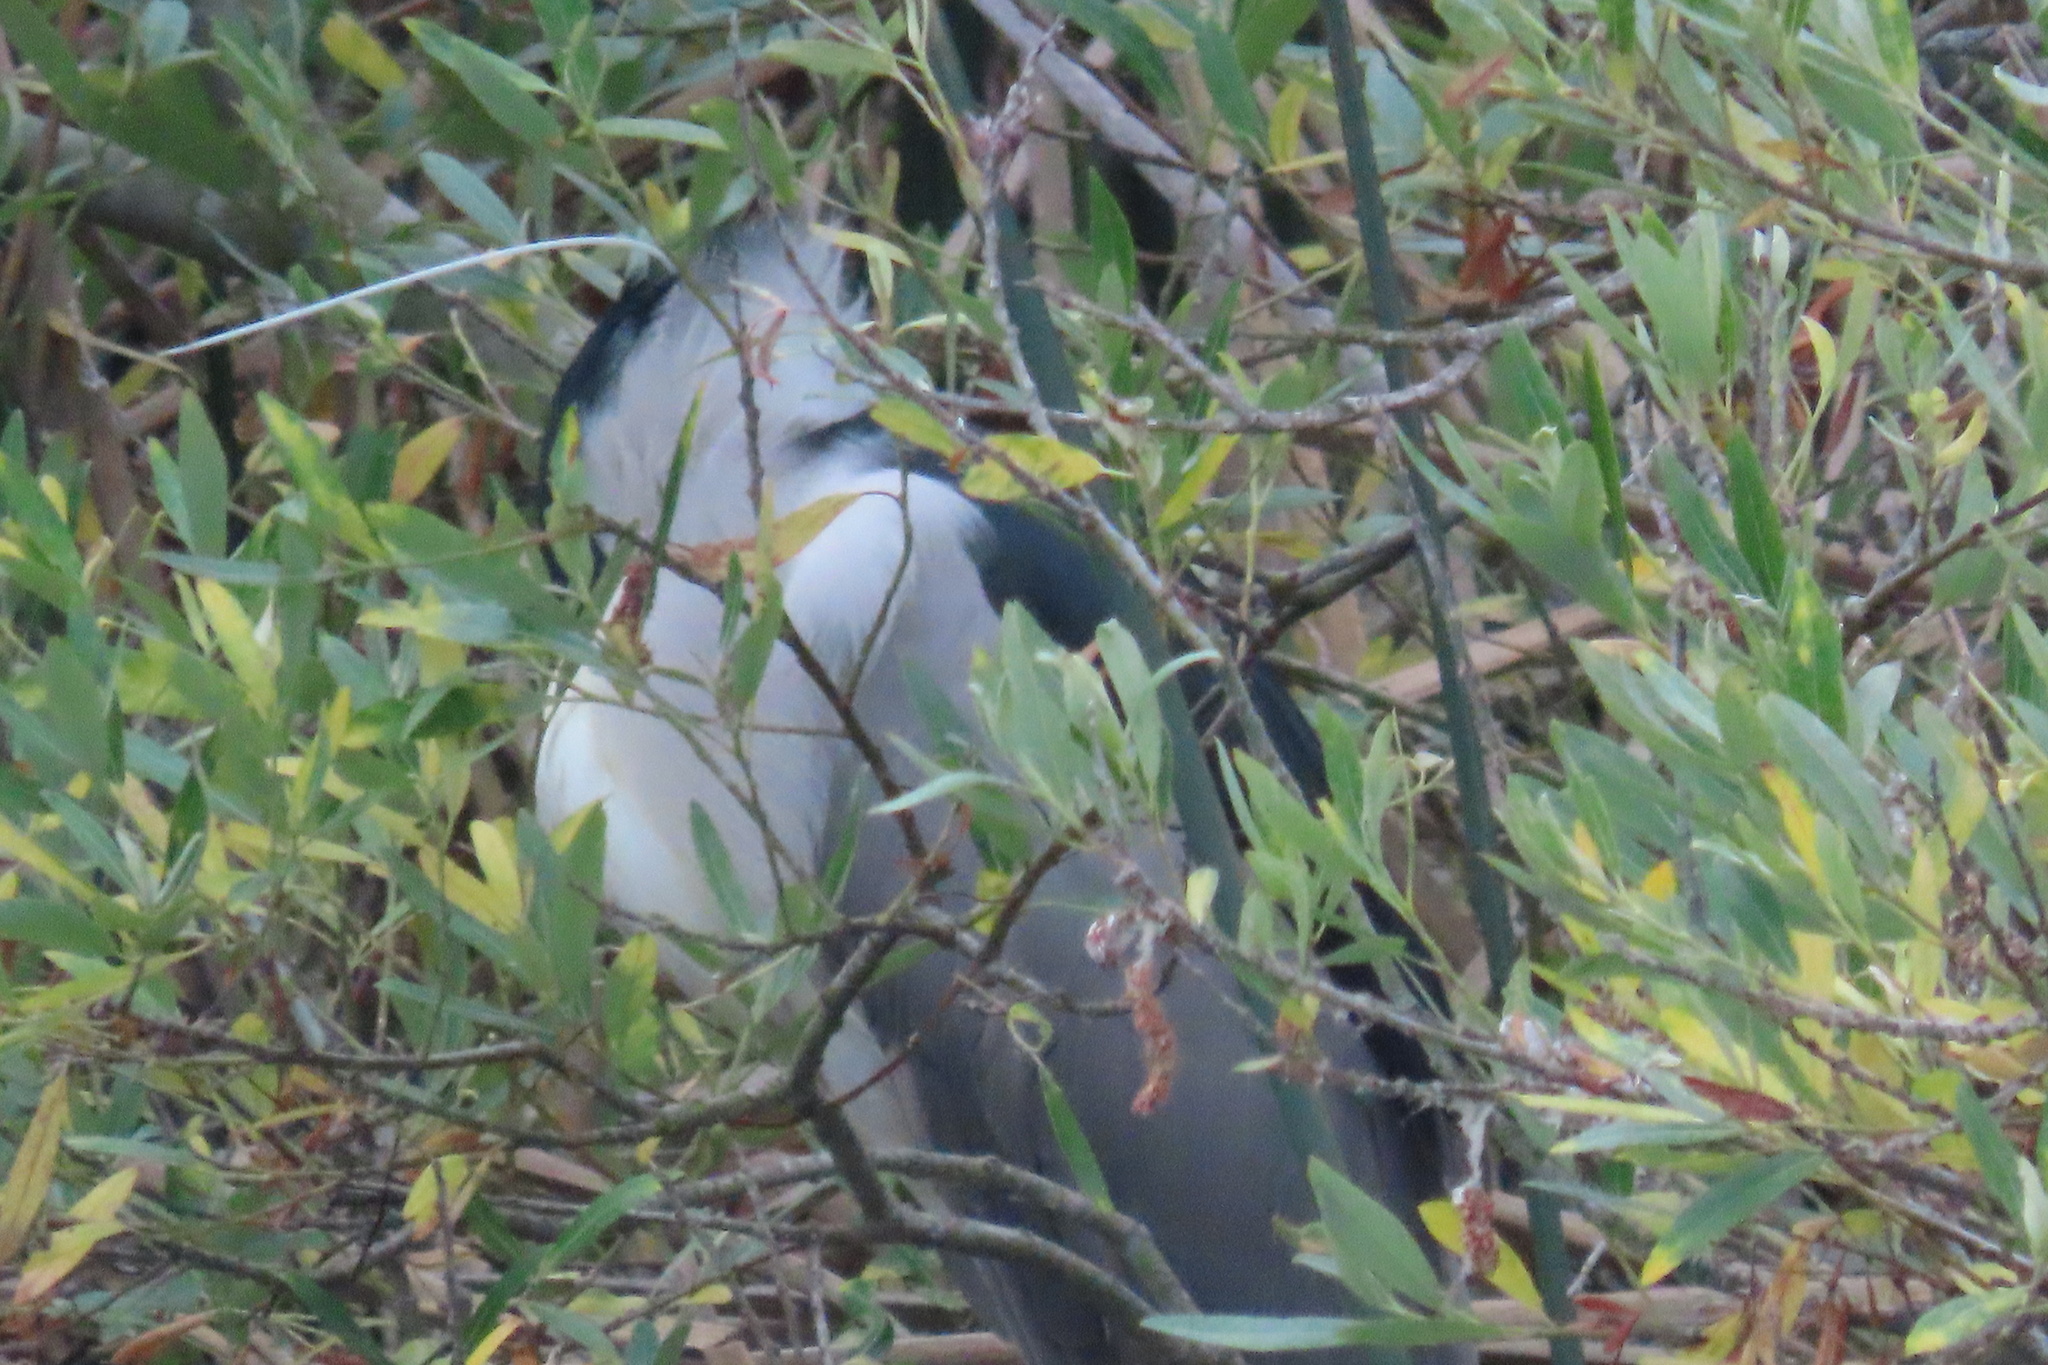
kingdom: Animalia
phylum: Chordata
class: Aves
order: Pelecaniformes
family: Ardeidae
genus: Nycticorax
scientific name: Nycticorax nycticorax
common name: Black-crowned night heron
